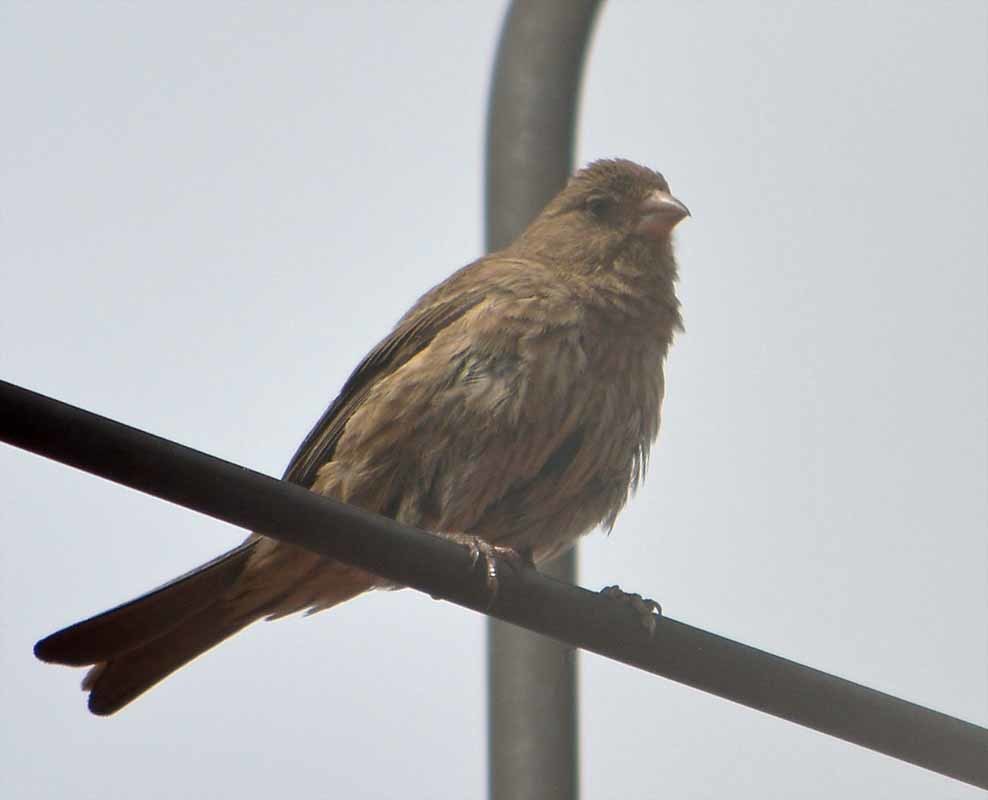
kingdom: Animalia
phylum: Chordata
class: Aves
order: Passeriformes
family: Fringillidae
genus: Haemorhous
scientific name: Haemorhous mexicanus
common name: House finch
